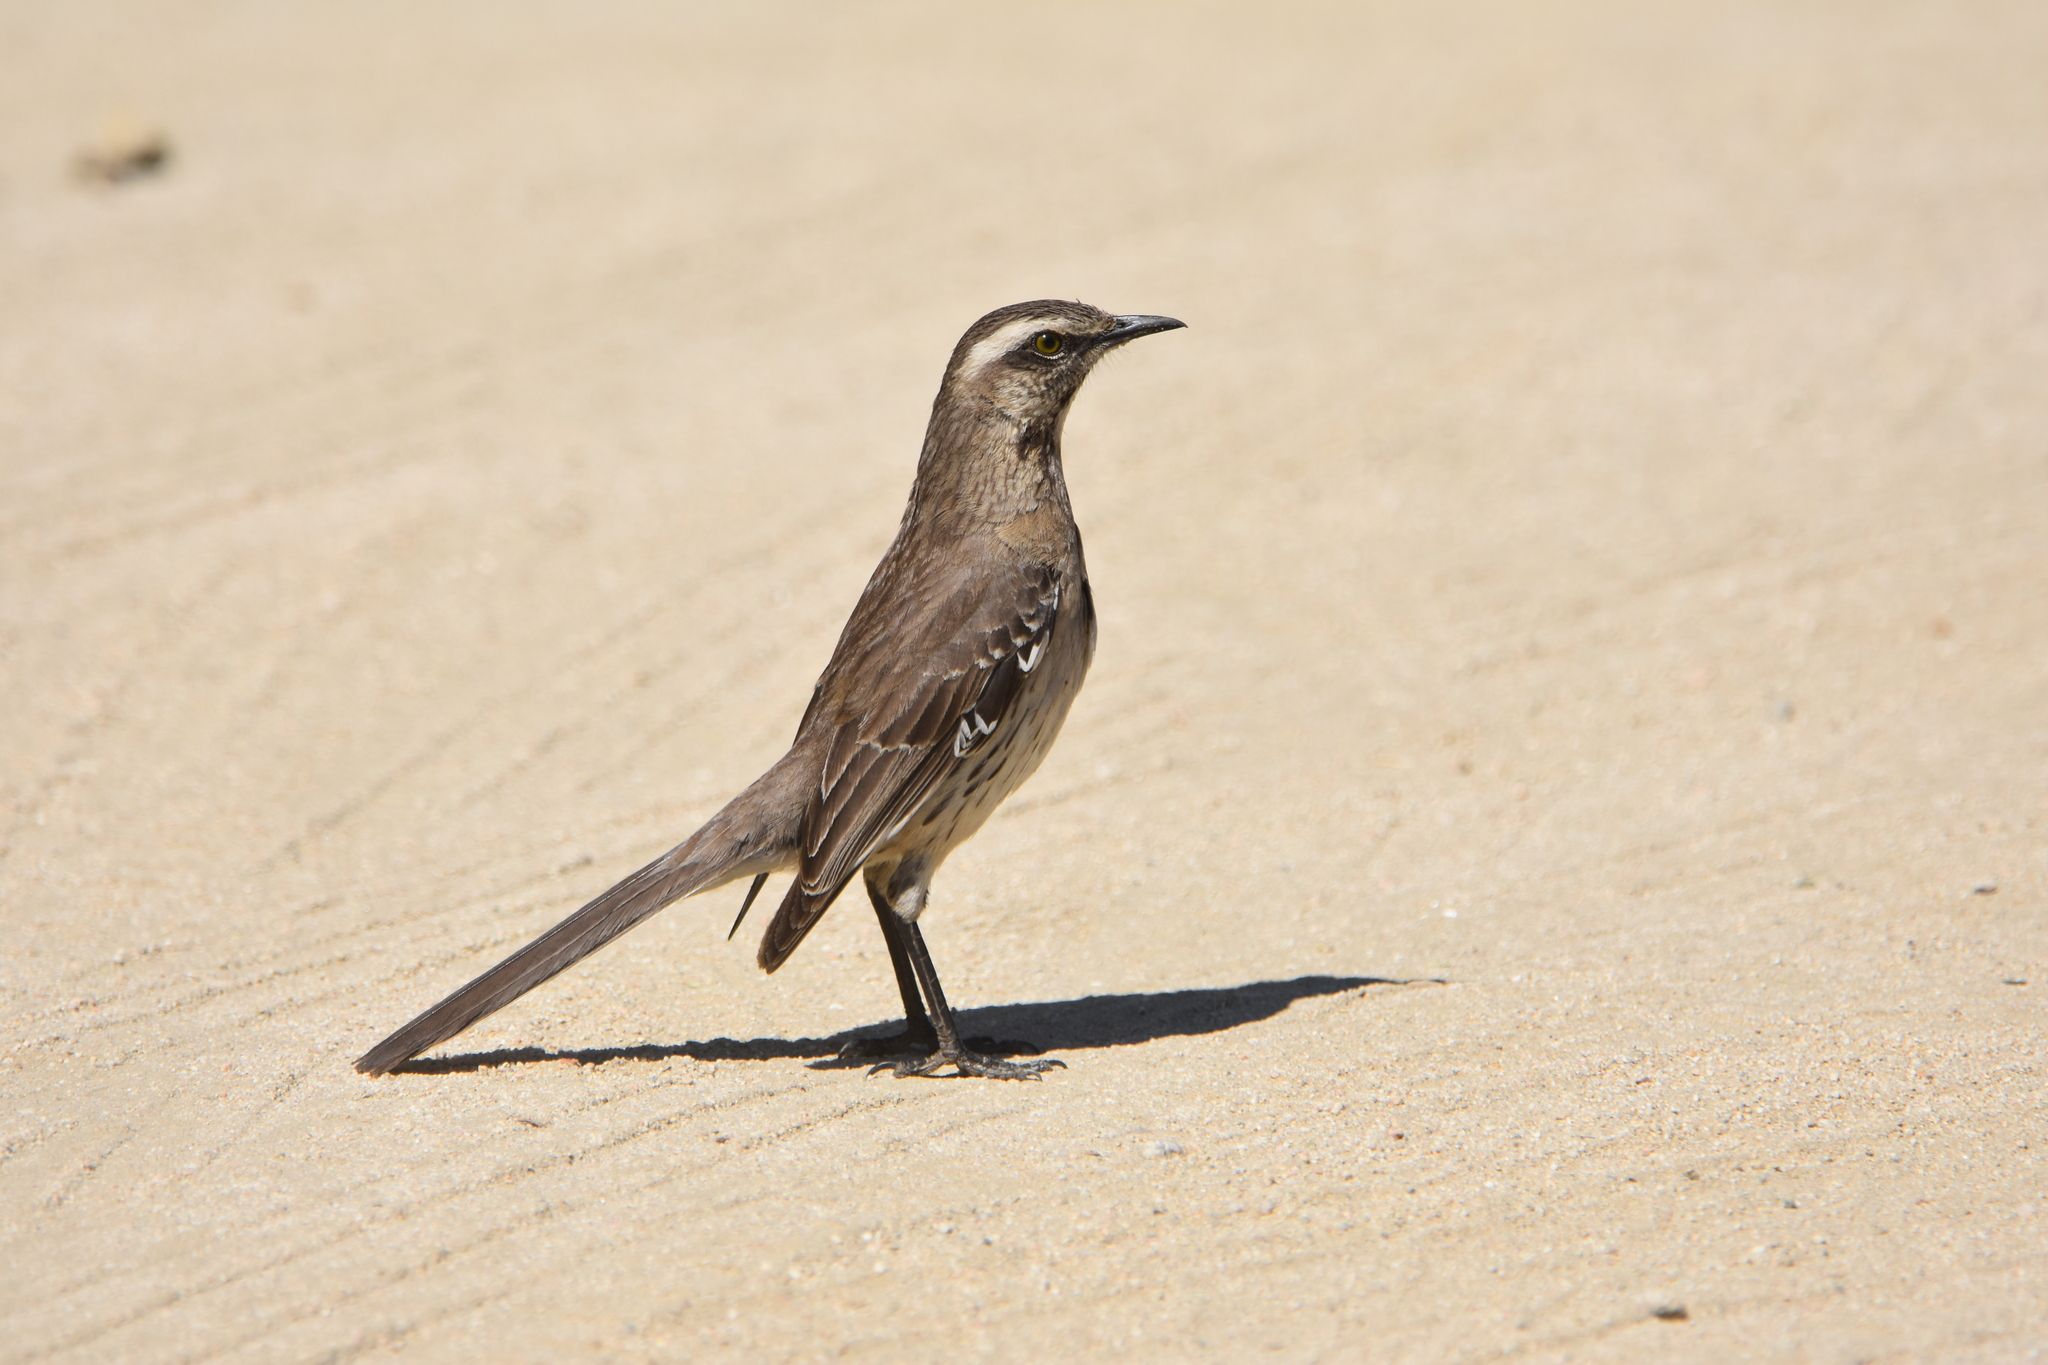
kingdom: Animalia
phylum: Chordata
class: Aves
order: Passeriformes
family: Mimidae
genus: Mimus
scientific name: Mimus thenca
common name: Chilean mockingbird
